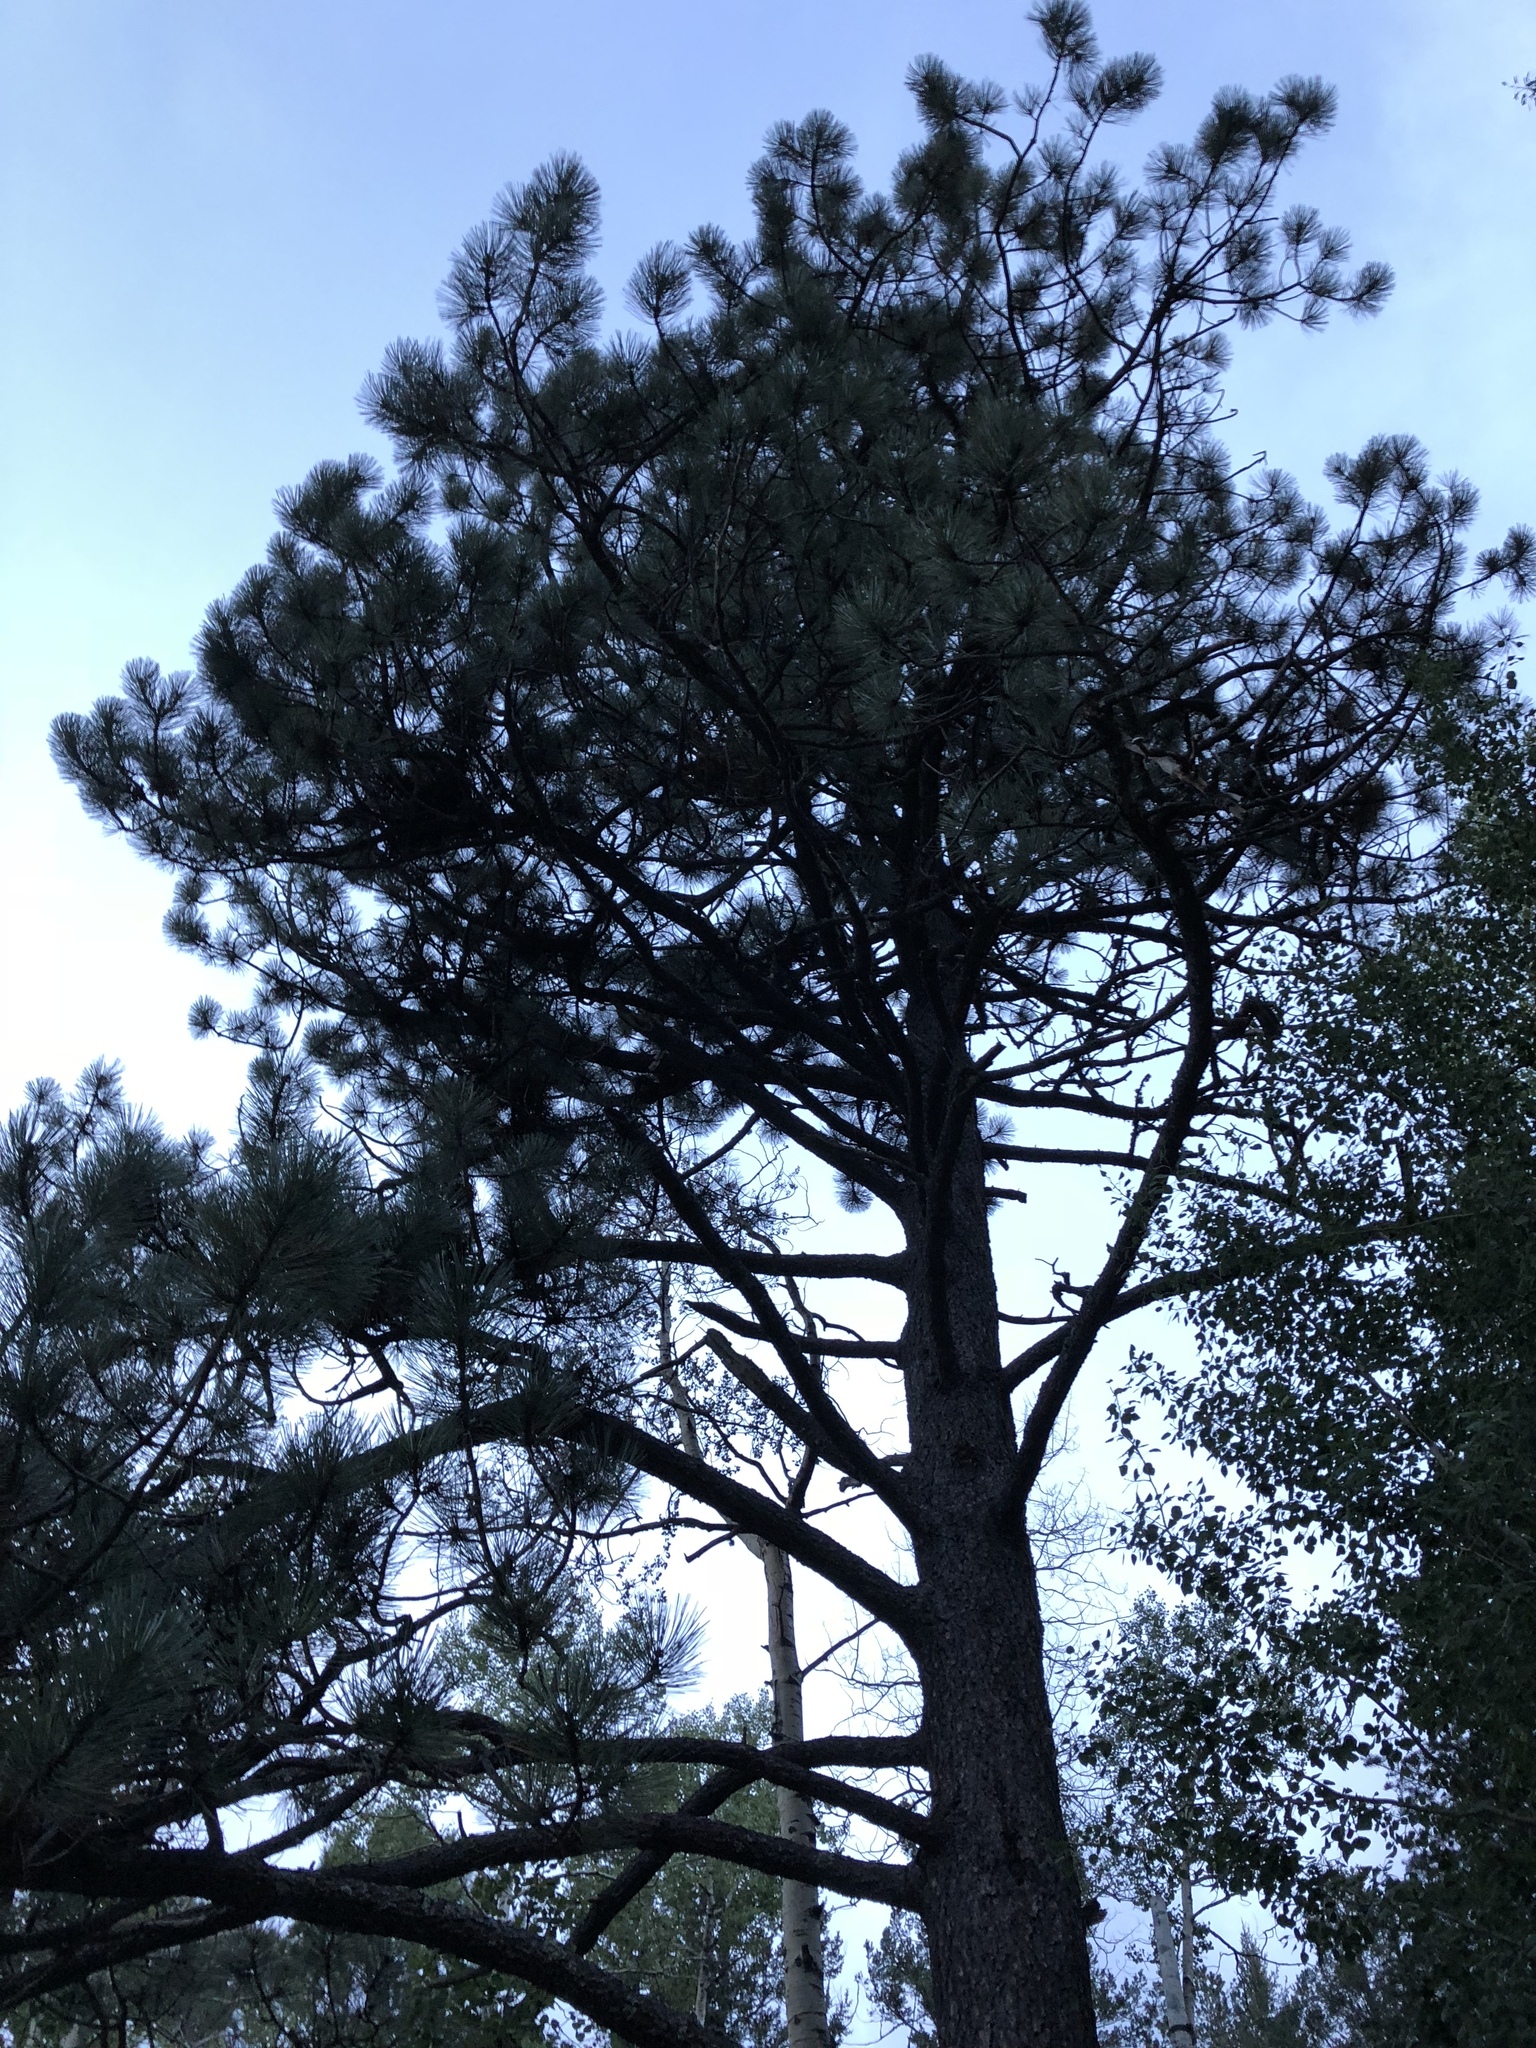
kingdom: Plantae
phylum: Tracheophyta
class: Pinopsida
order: Pinales
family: Pinaceae
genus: Pinus
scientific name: Pinus ponderosa
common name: Western yellow-pine
